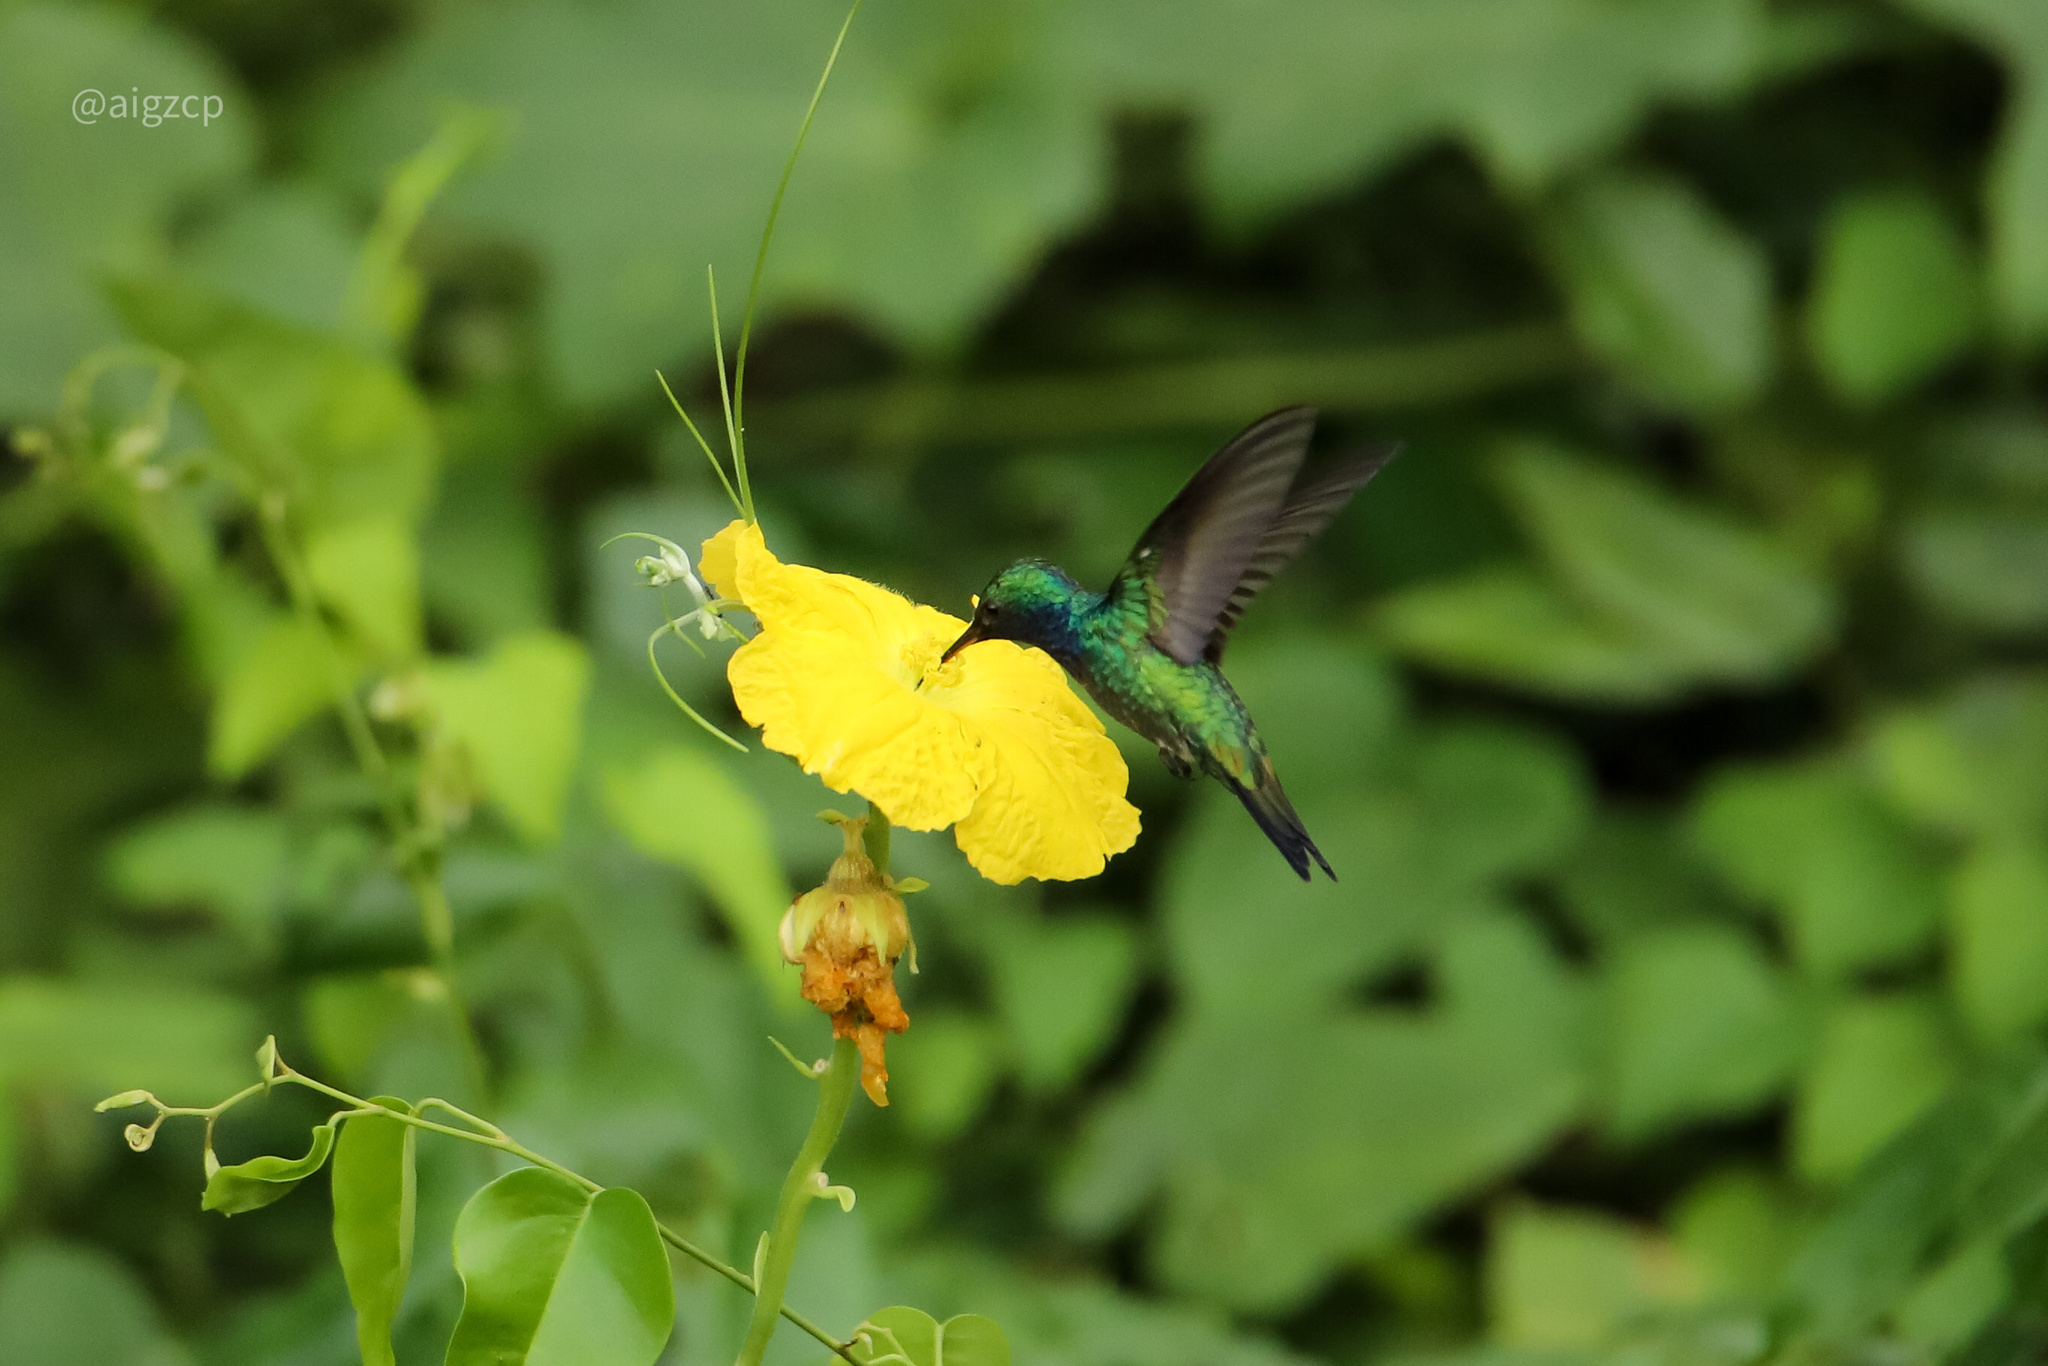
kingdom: Animalia
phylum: Chordata
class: Aves
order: Apodiformes
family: Trochilidae
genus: Chrysuronia
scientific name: Chrysuronia coeruleogularis
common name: Sapphire-throated hummingbird
